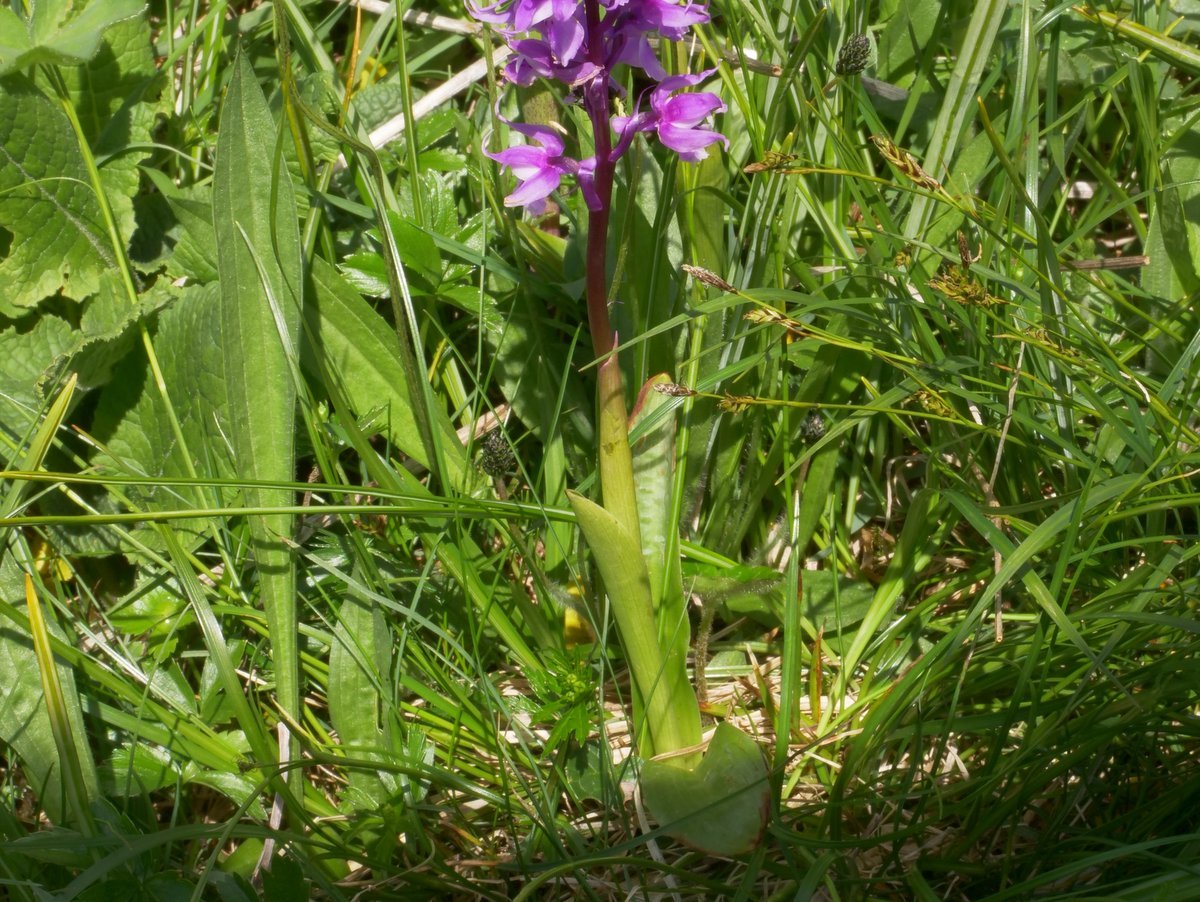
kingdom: Plantae
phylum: Tracheophyta
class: Liliopsida
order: Asparagales
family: Orchidaceae
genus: Orchis
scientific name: Orchis mascula
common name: Early-purple orchid
